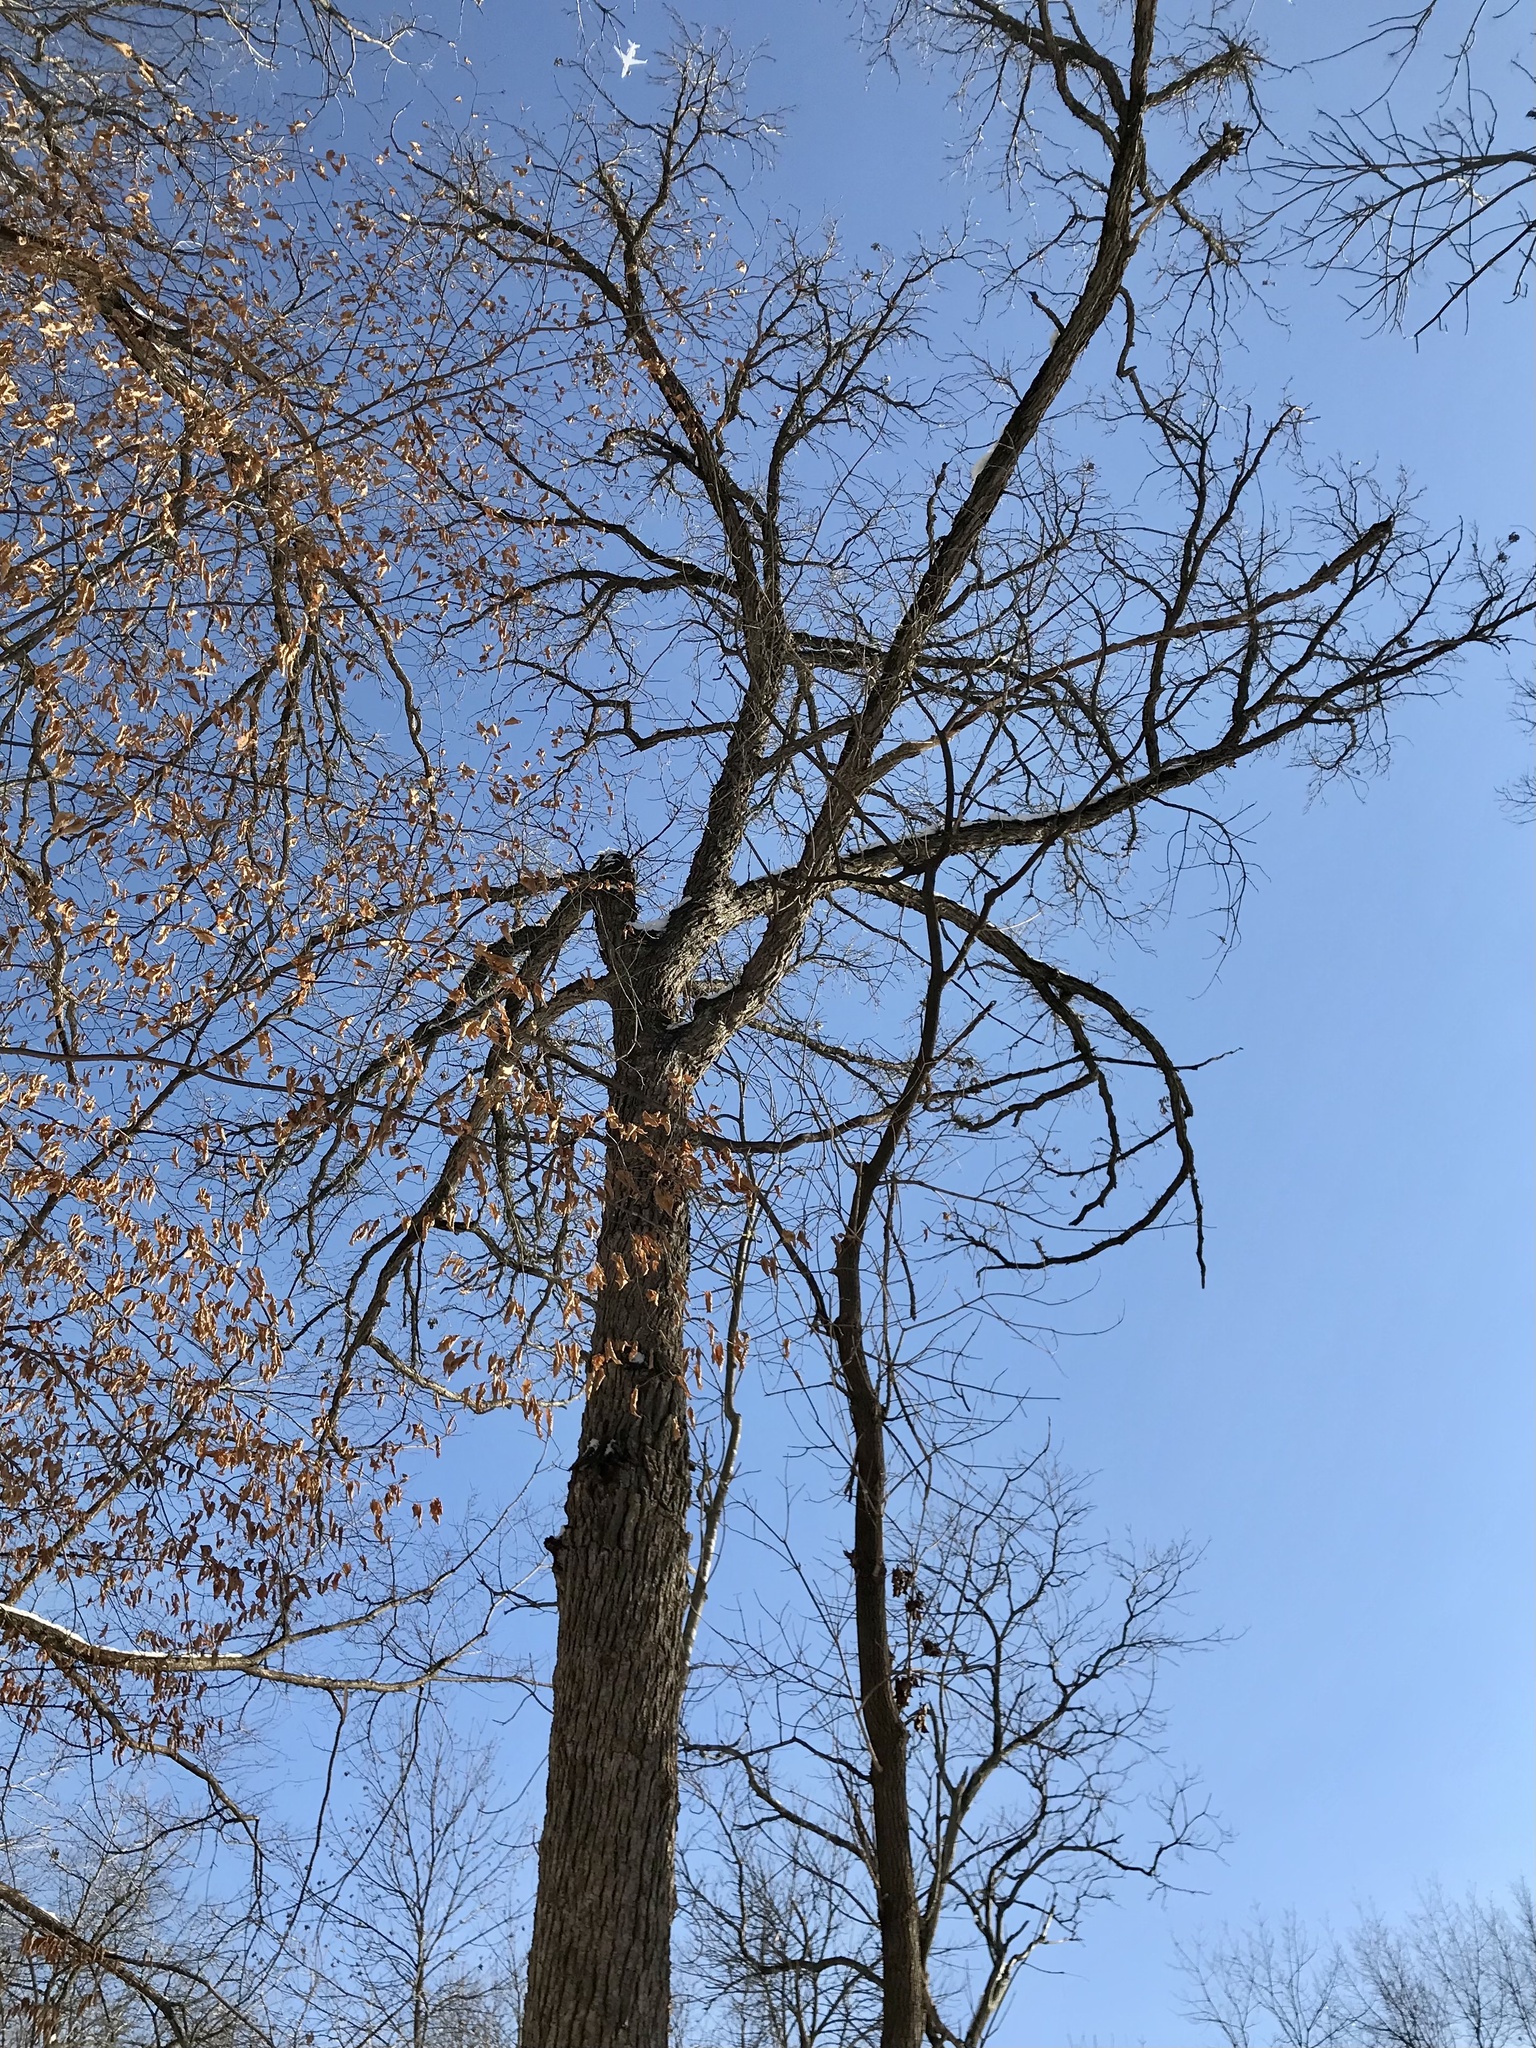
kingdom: Plantae
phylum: Tracheophyta
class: Magnoliopsida
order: Fagales
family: Fagaceae
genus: Quercus
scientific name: Quercus macrocarpa
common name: Bur oak
